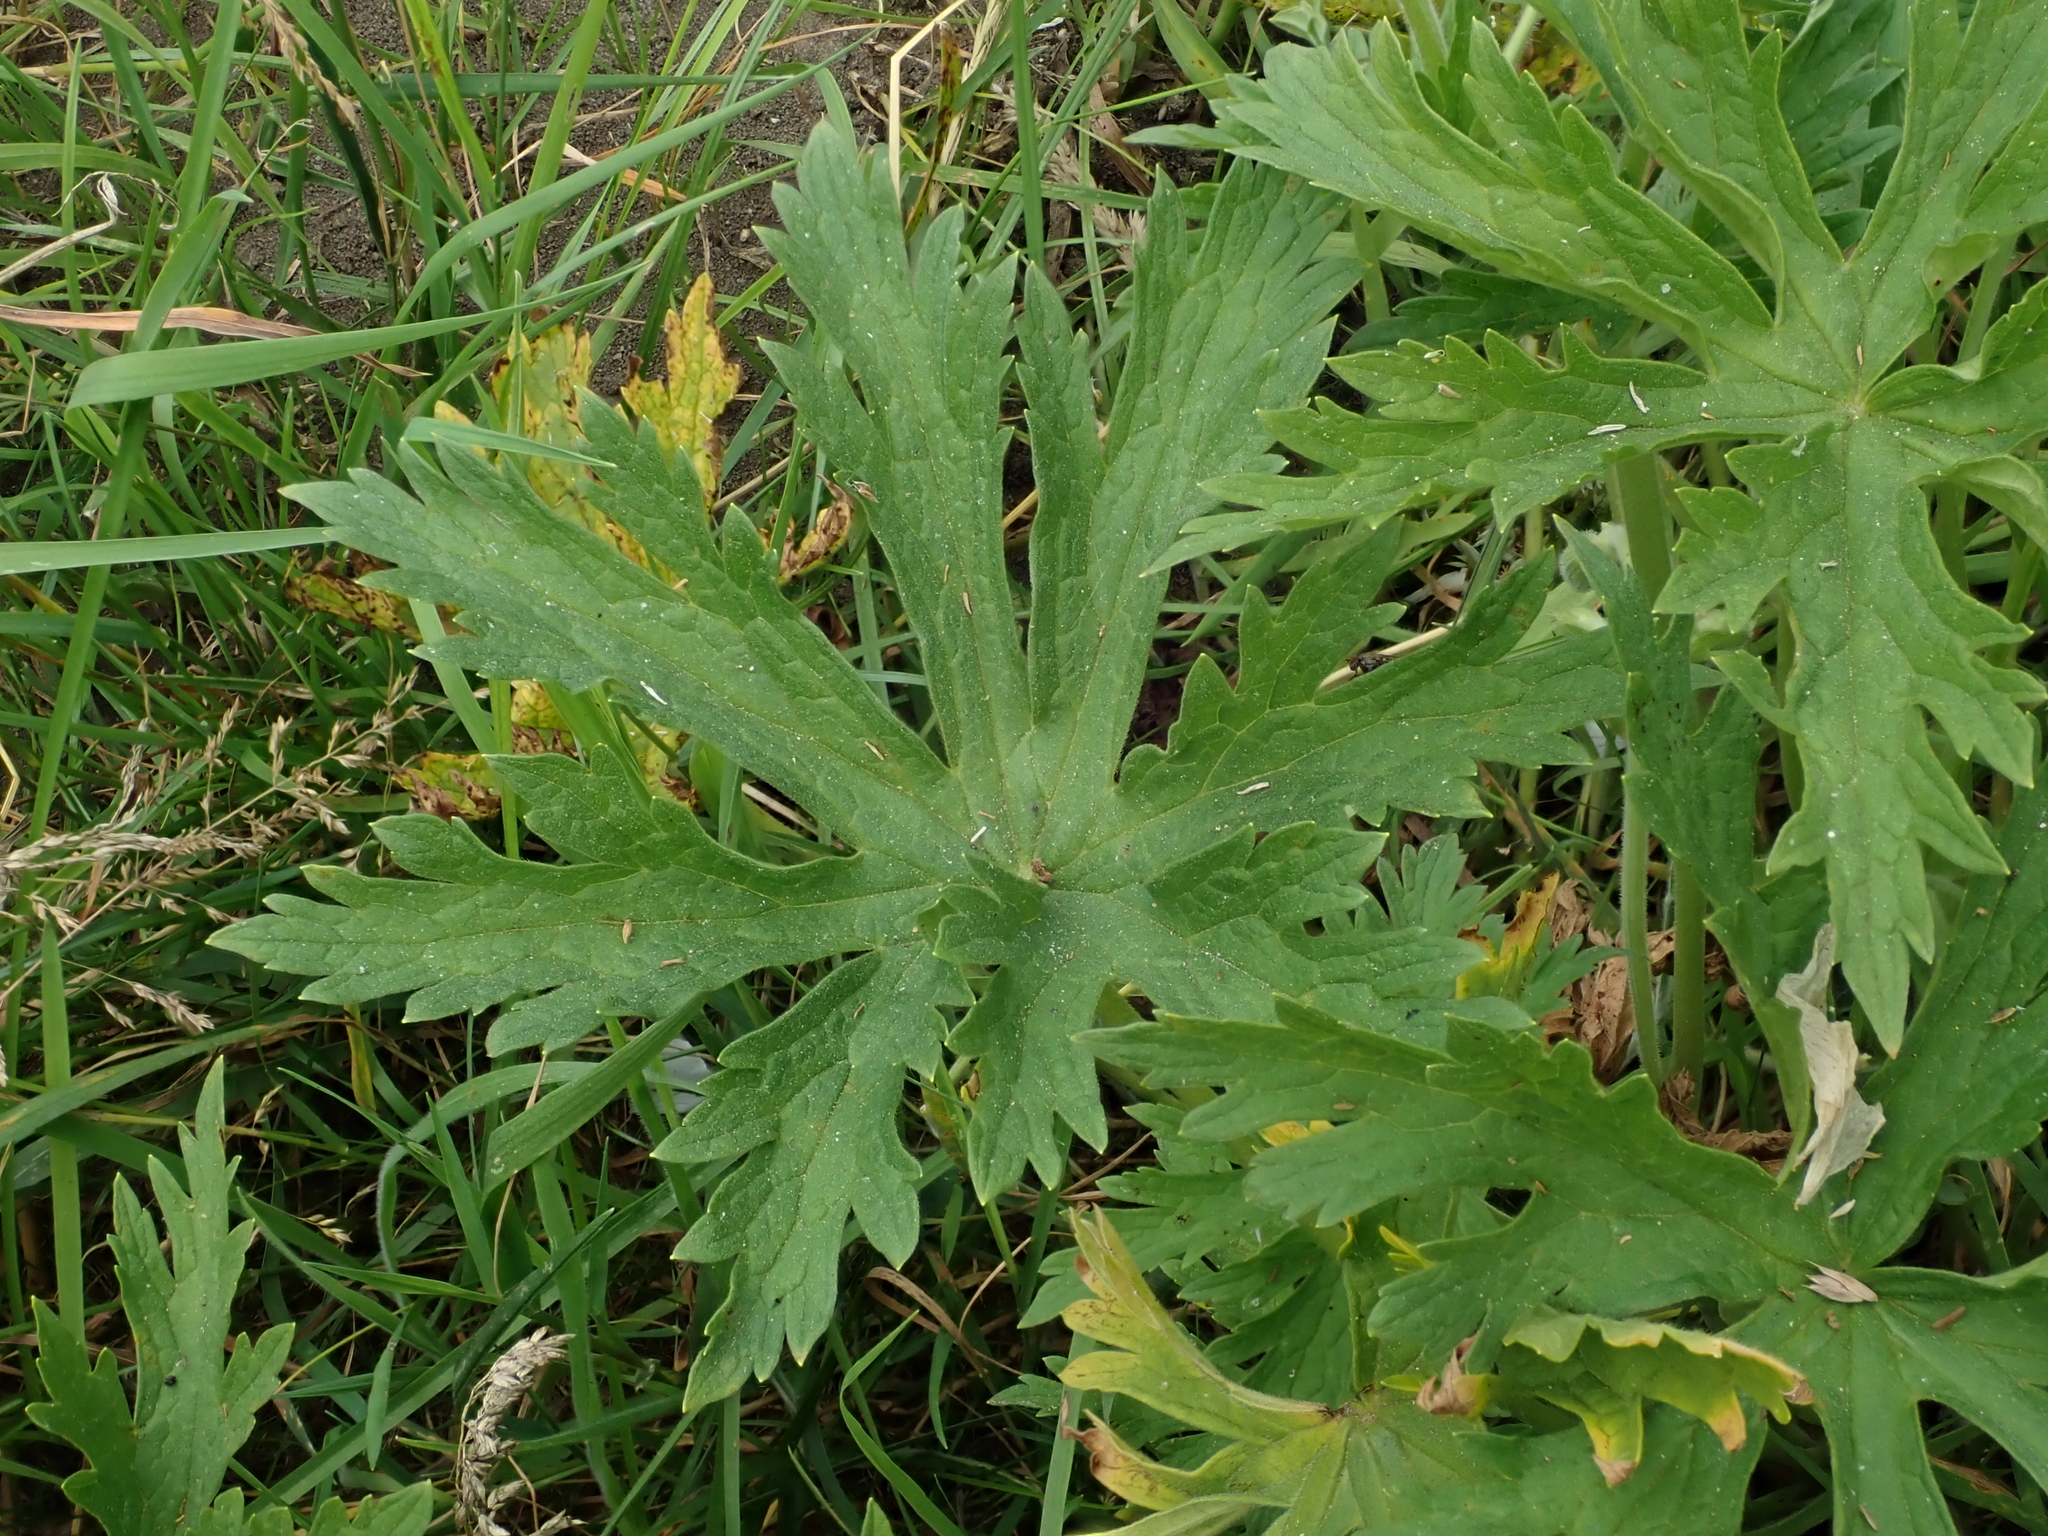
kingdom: Plantae
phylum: Tracheophyta
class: Magnoliopsida
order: Geraniales
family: Geraniaceae
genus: Geranium
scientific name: Geranium pratense
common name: Meadow crane's-bill
